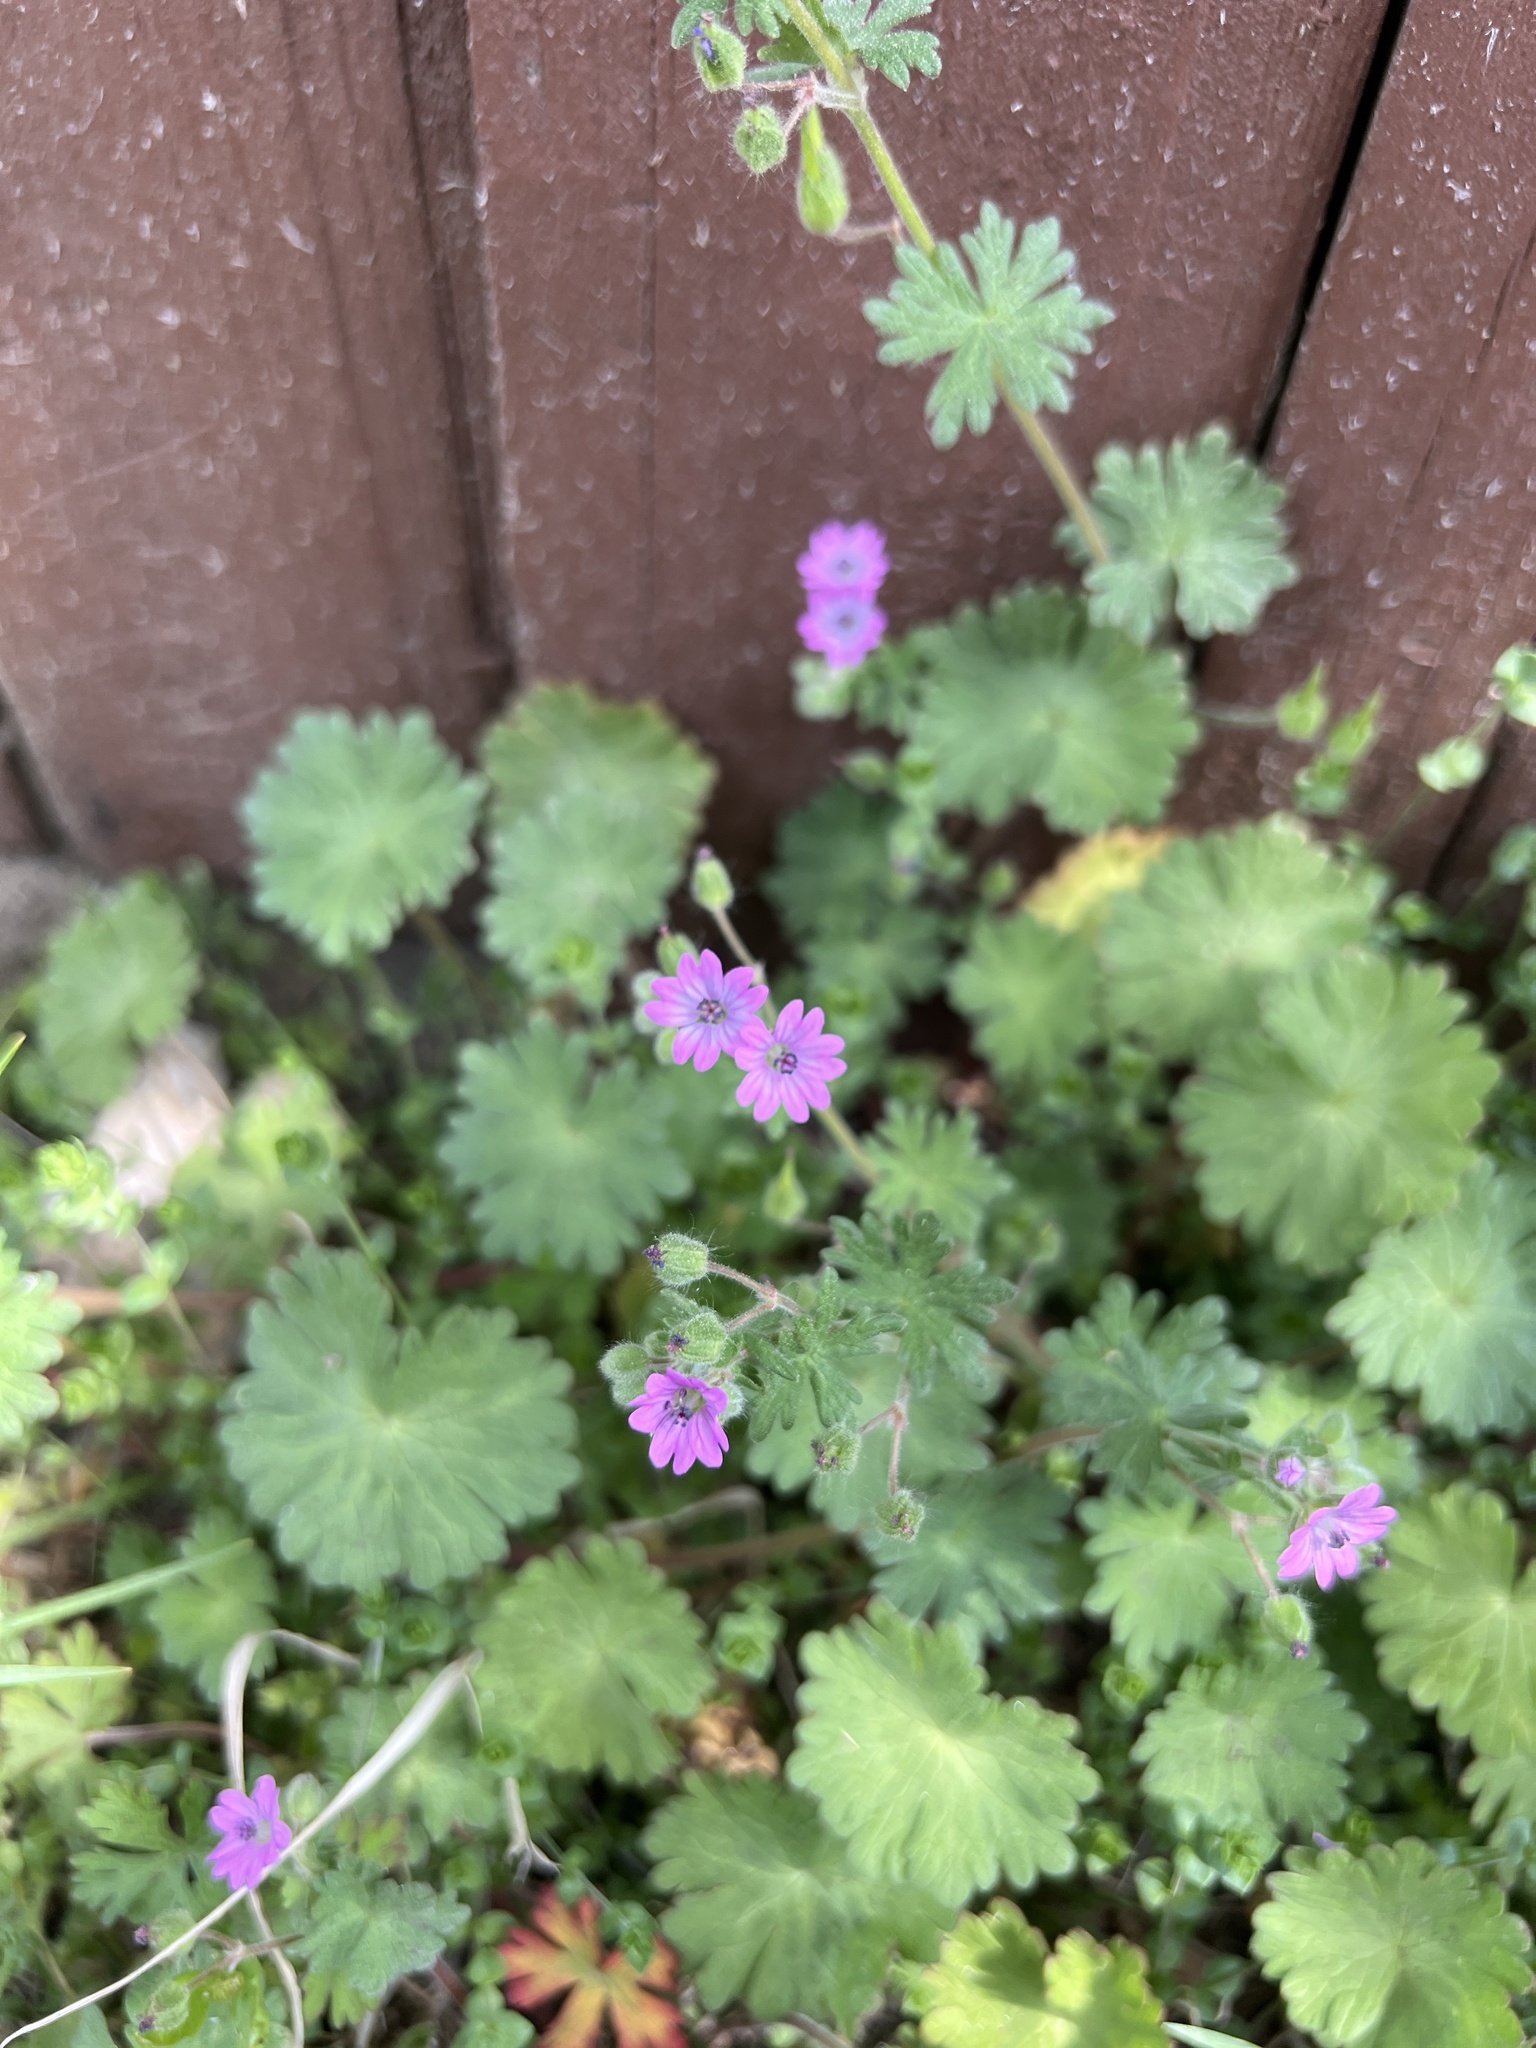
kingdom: Plantae
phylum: Tracheophyta
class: Magnoliopsida
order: Geraniales
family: Geraniaceae
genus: Geranium
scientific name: Geranium molle
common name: Dove's-foot crane's-bill
